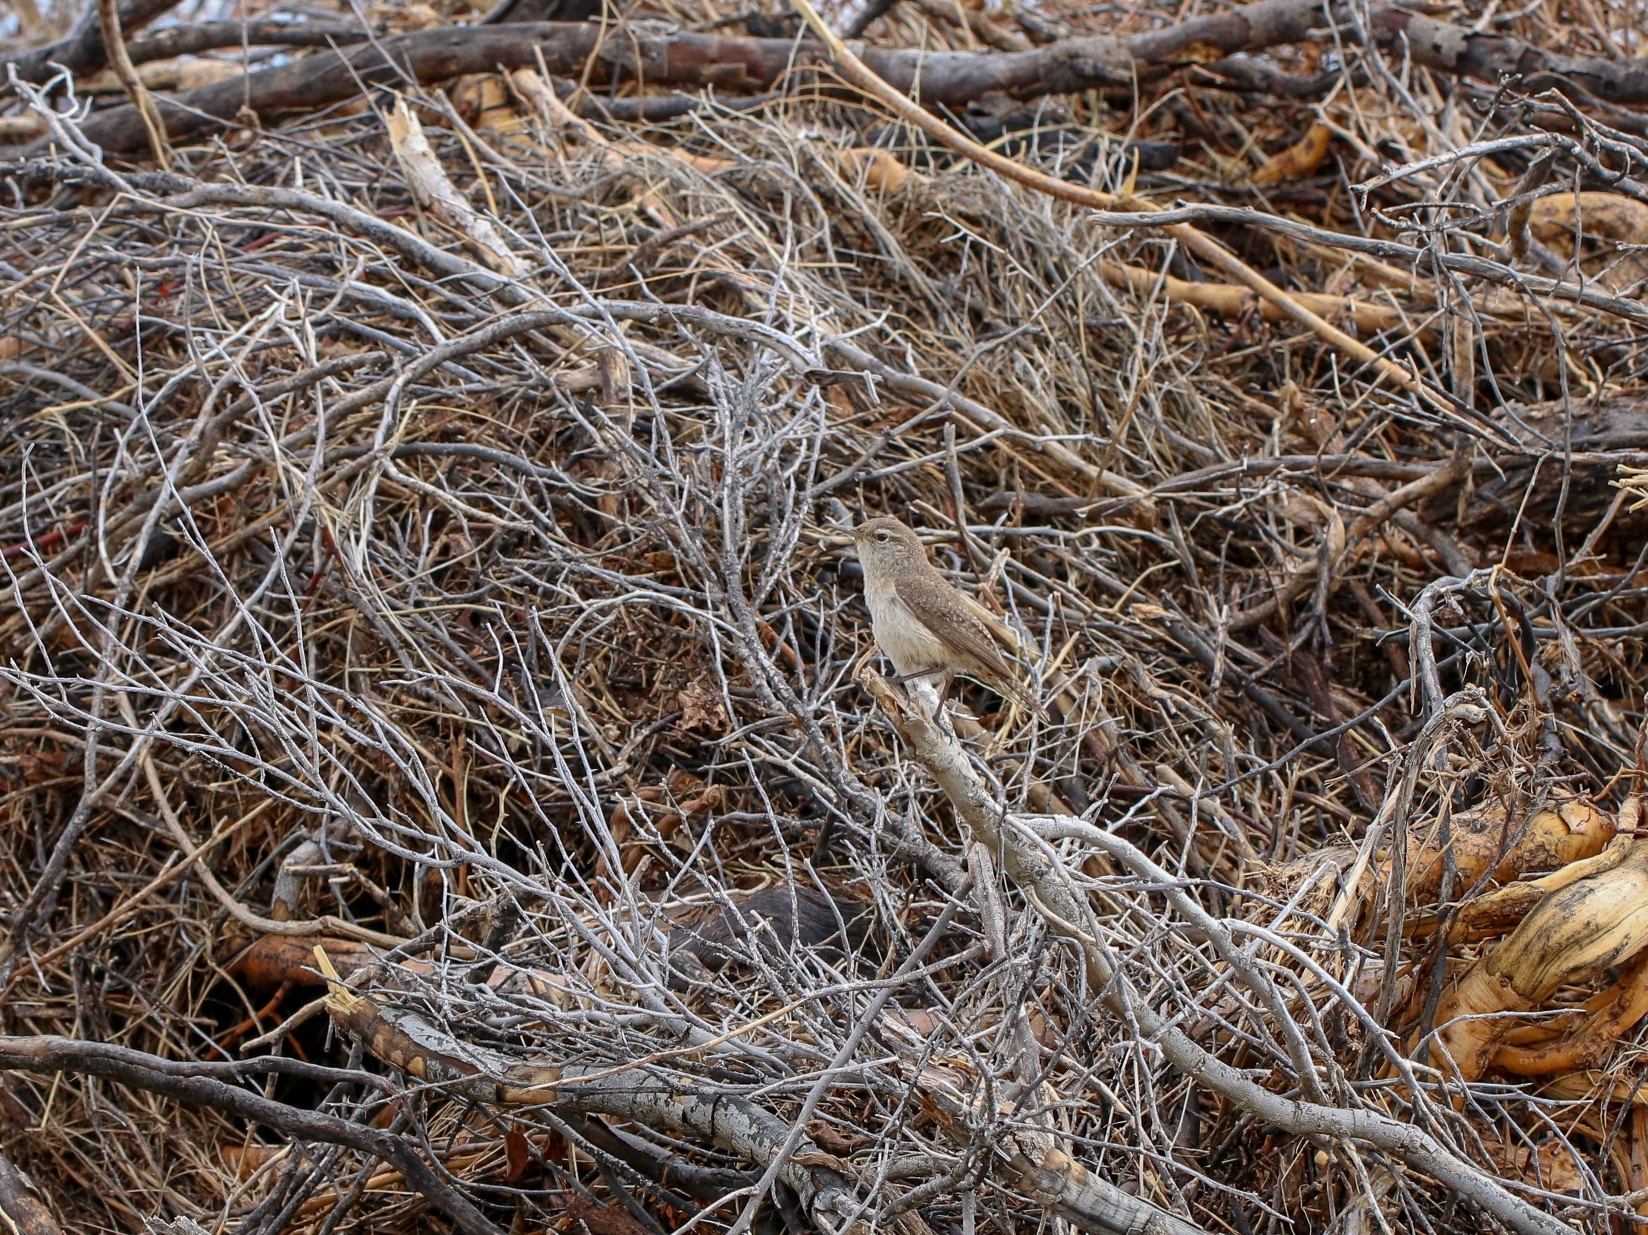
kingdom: Animalia
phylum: Chordata
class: Aves
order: Passeriformes
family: Troglodytidae
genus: Salpinctes
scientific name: Salpinctes obsoletus
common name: Rock wren
